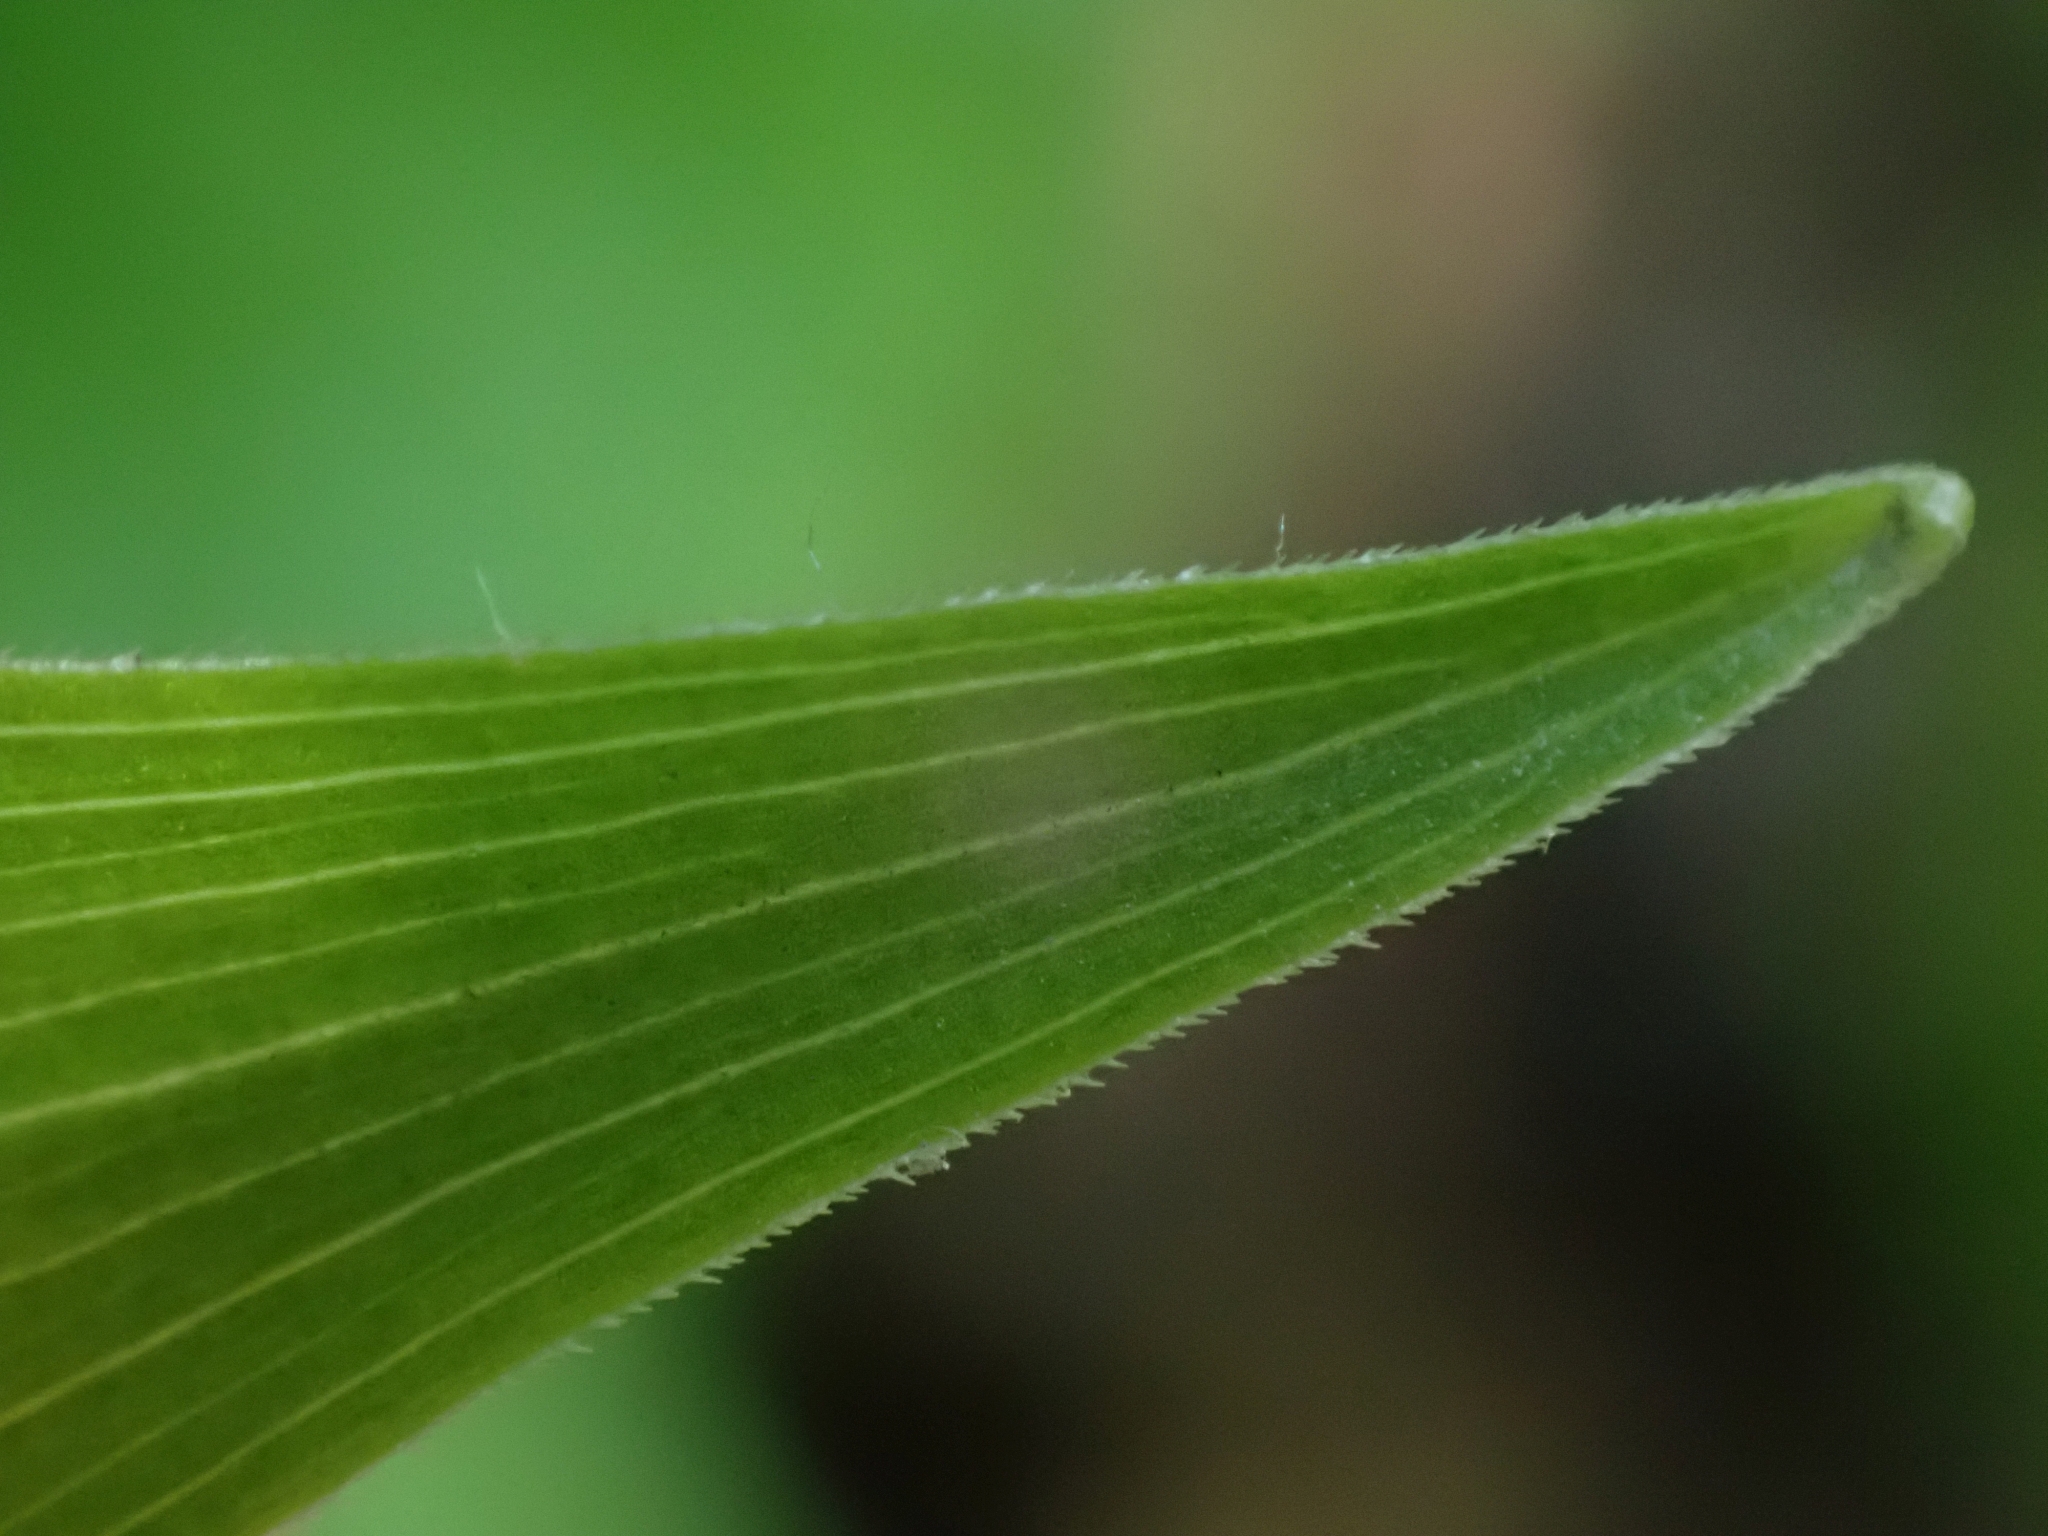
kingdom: Plantae
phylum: Tracheophyta
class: Liliopsida
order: Asparagales
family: Asparagaceae
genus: Maianthemum
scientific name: Maianthemum stellatum
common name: Little false solomon's seal
